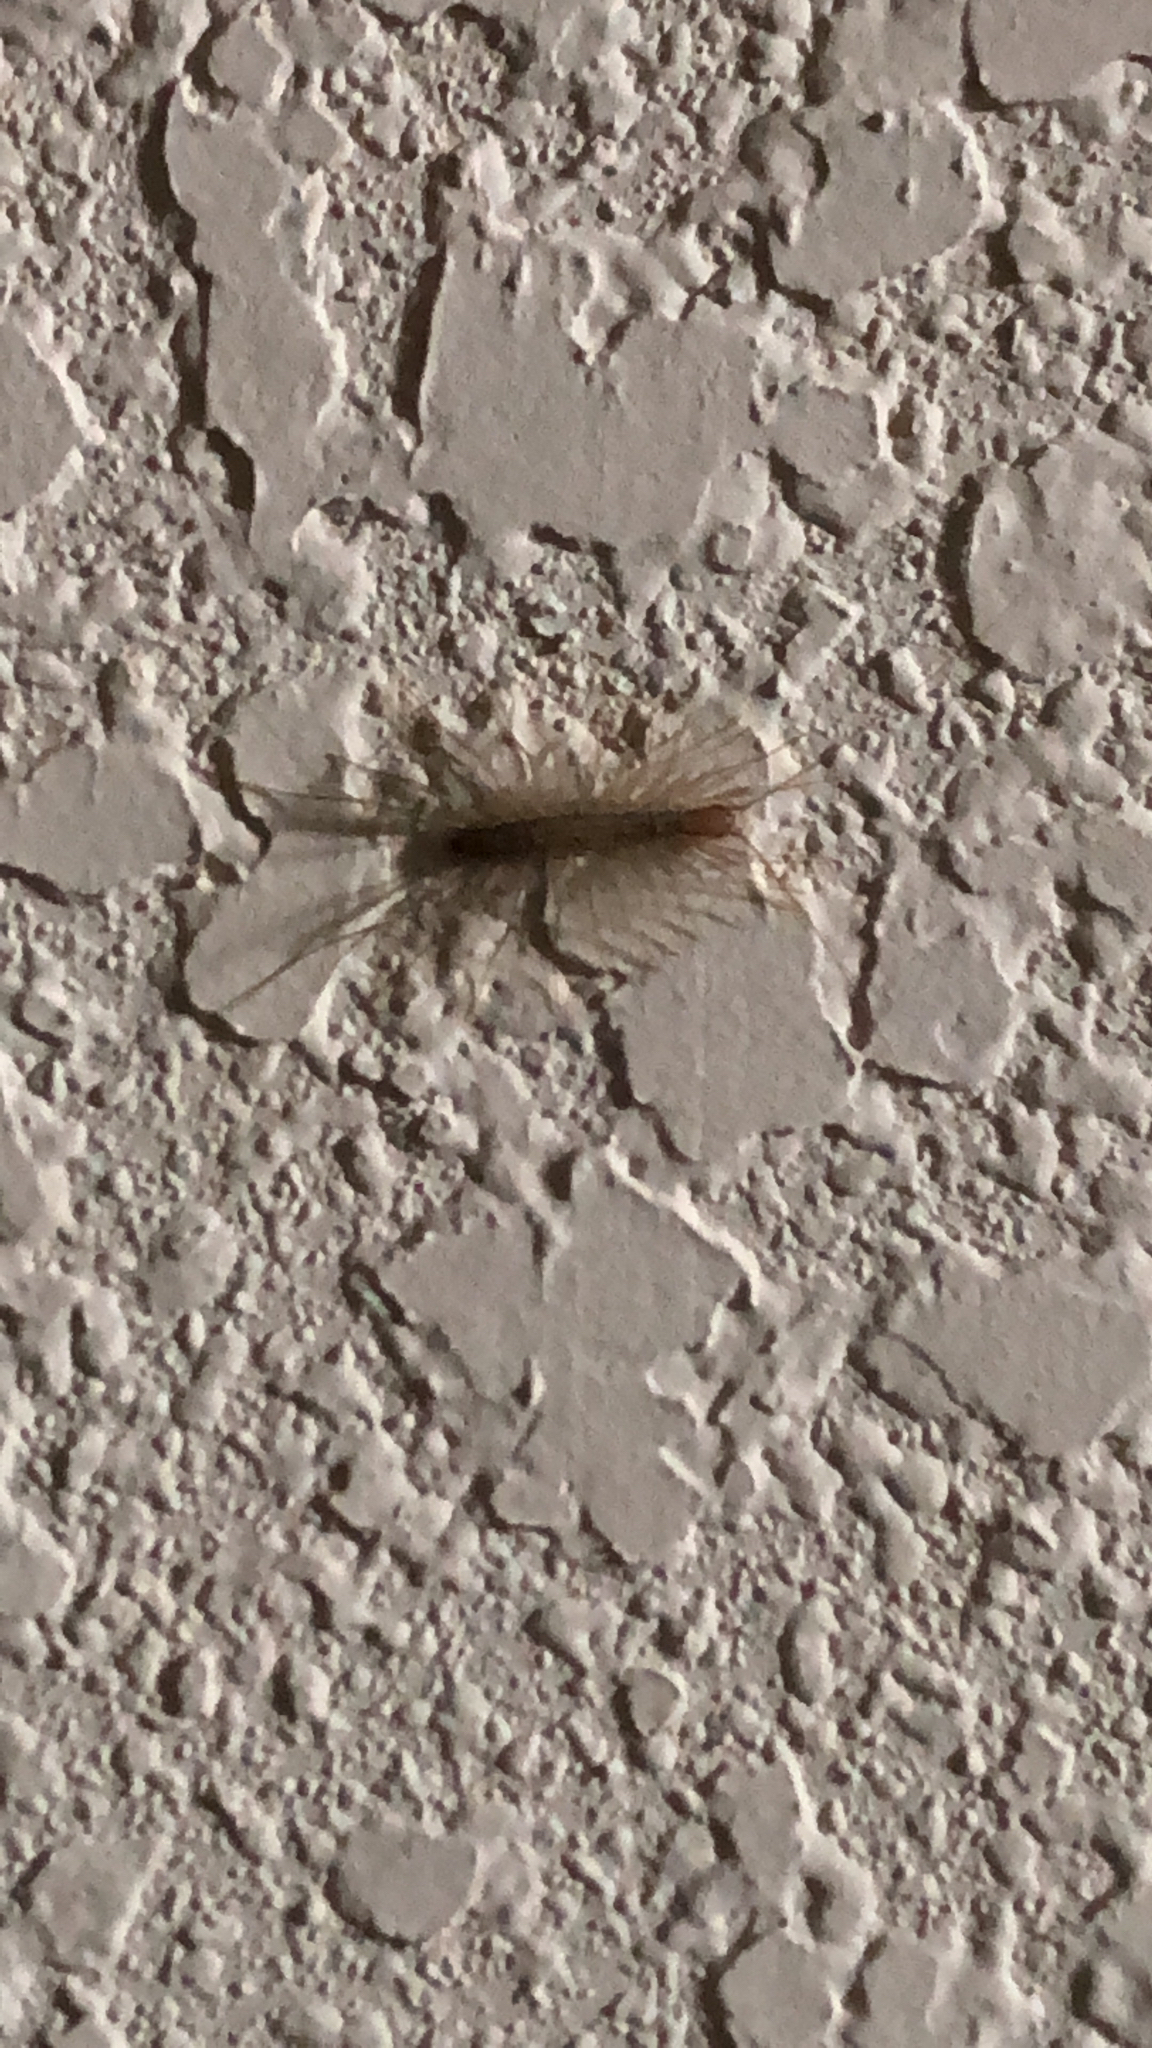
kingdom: Animalia
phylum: Arthropoda
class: Chilopoda
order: Scutigeromorpha
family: Scutigeridae
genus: Scutigera
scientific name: Scutigera coleoptrata
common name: House centipede
